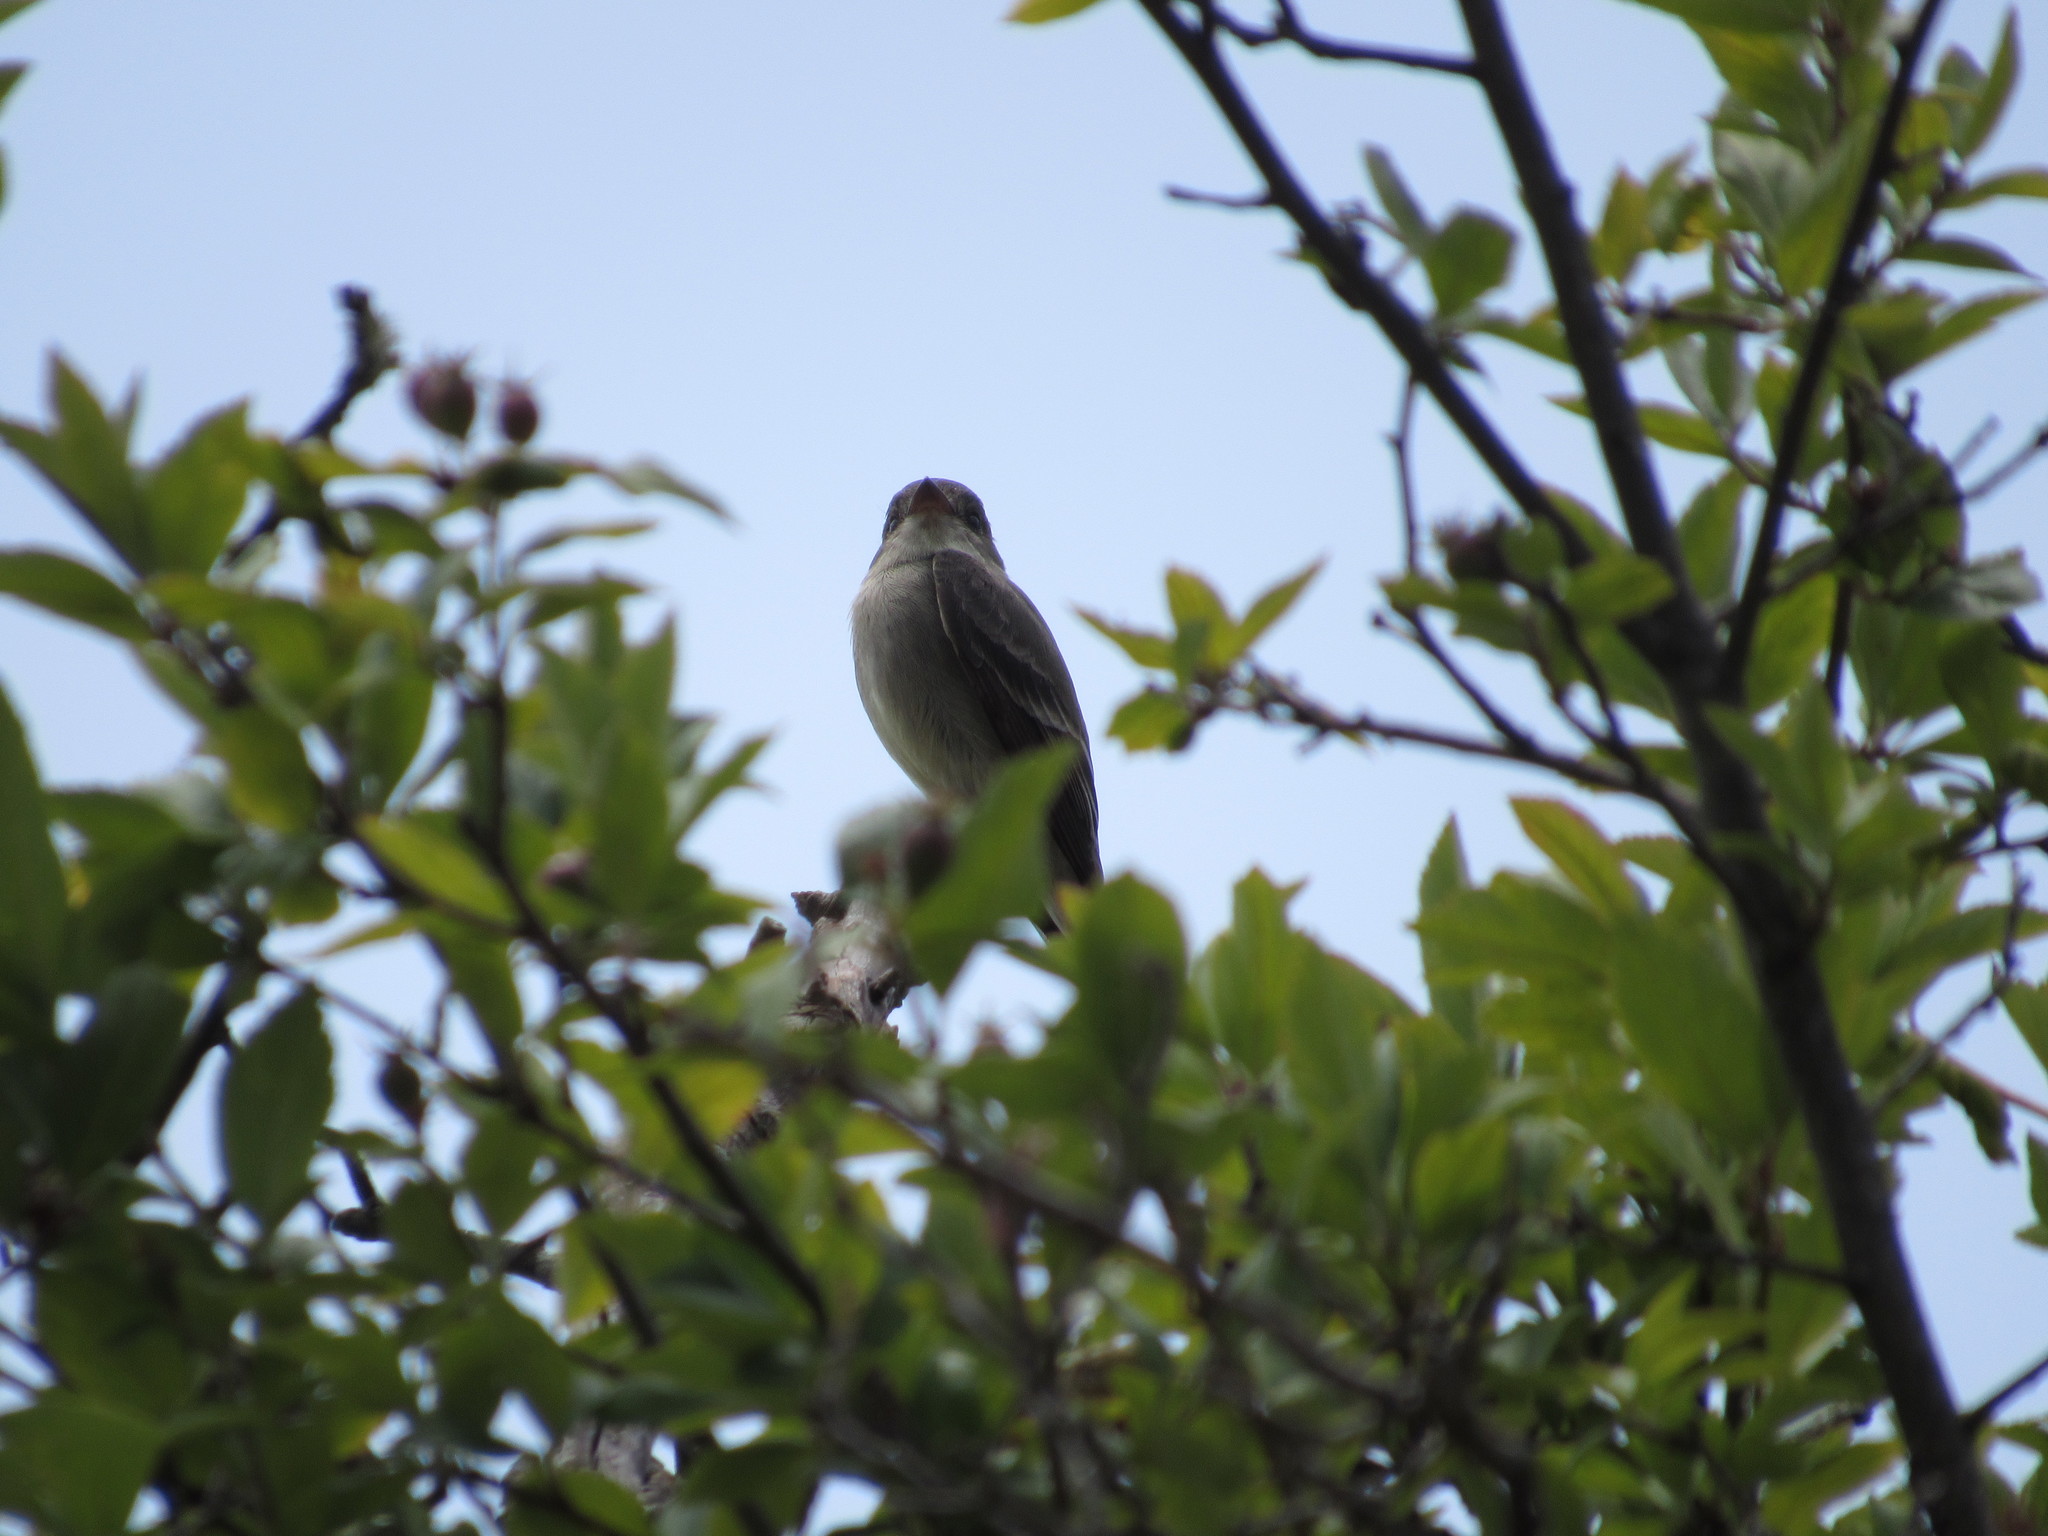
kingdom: Animalia
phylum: Chordata
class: Aves
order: Passeriformes
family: Tyrannidae
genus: Contopus
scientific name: Contopus sordidulus
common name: Western wood-pewee
